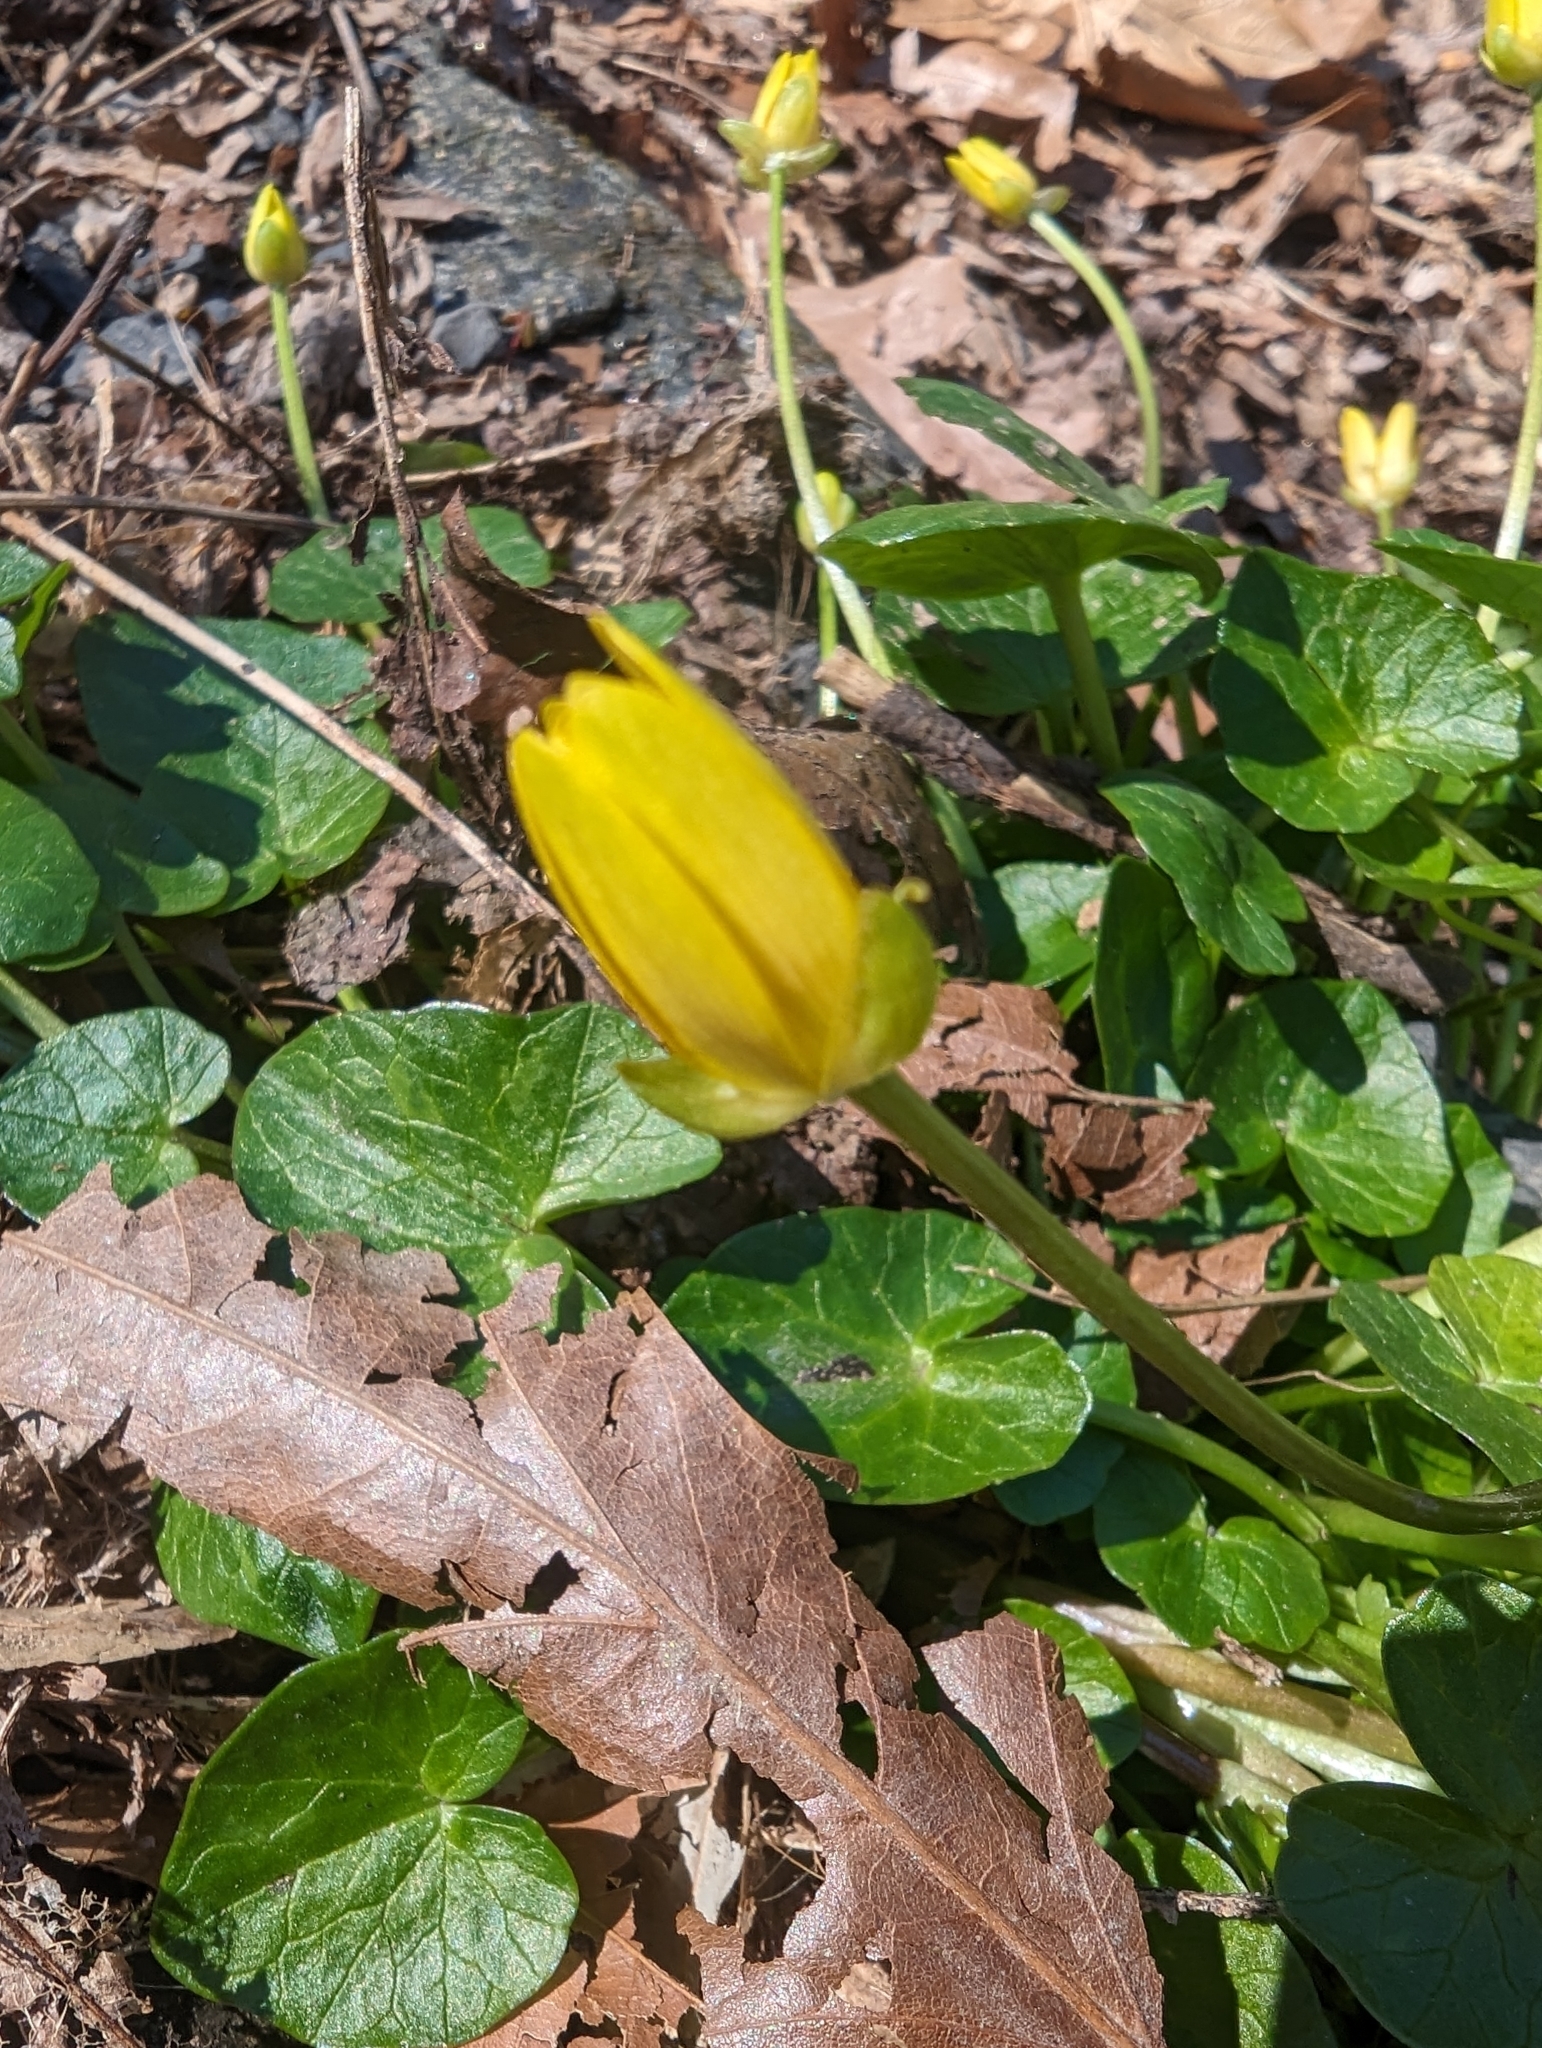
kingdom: Plantae
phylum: Tracheophyta
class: Magnoliopsida
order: Ranunculales
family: Ranunculaceae
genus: Ficaria
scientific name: Ficaria verna
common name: Lesser celandine
